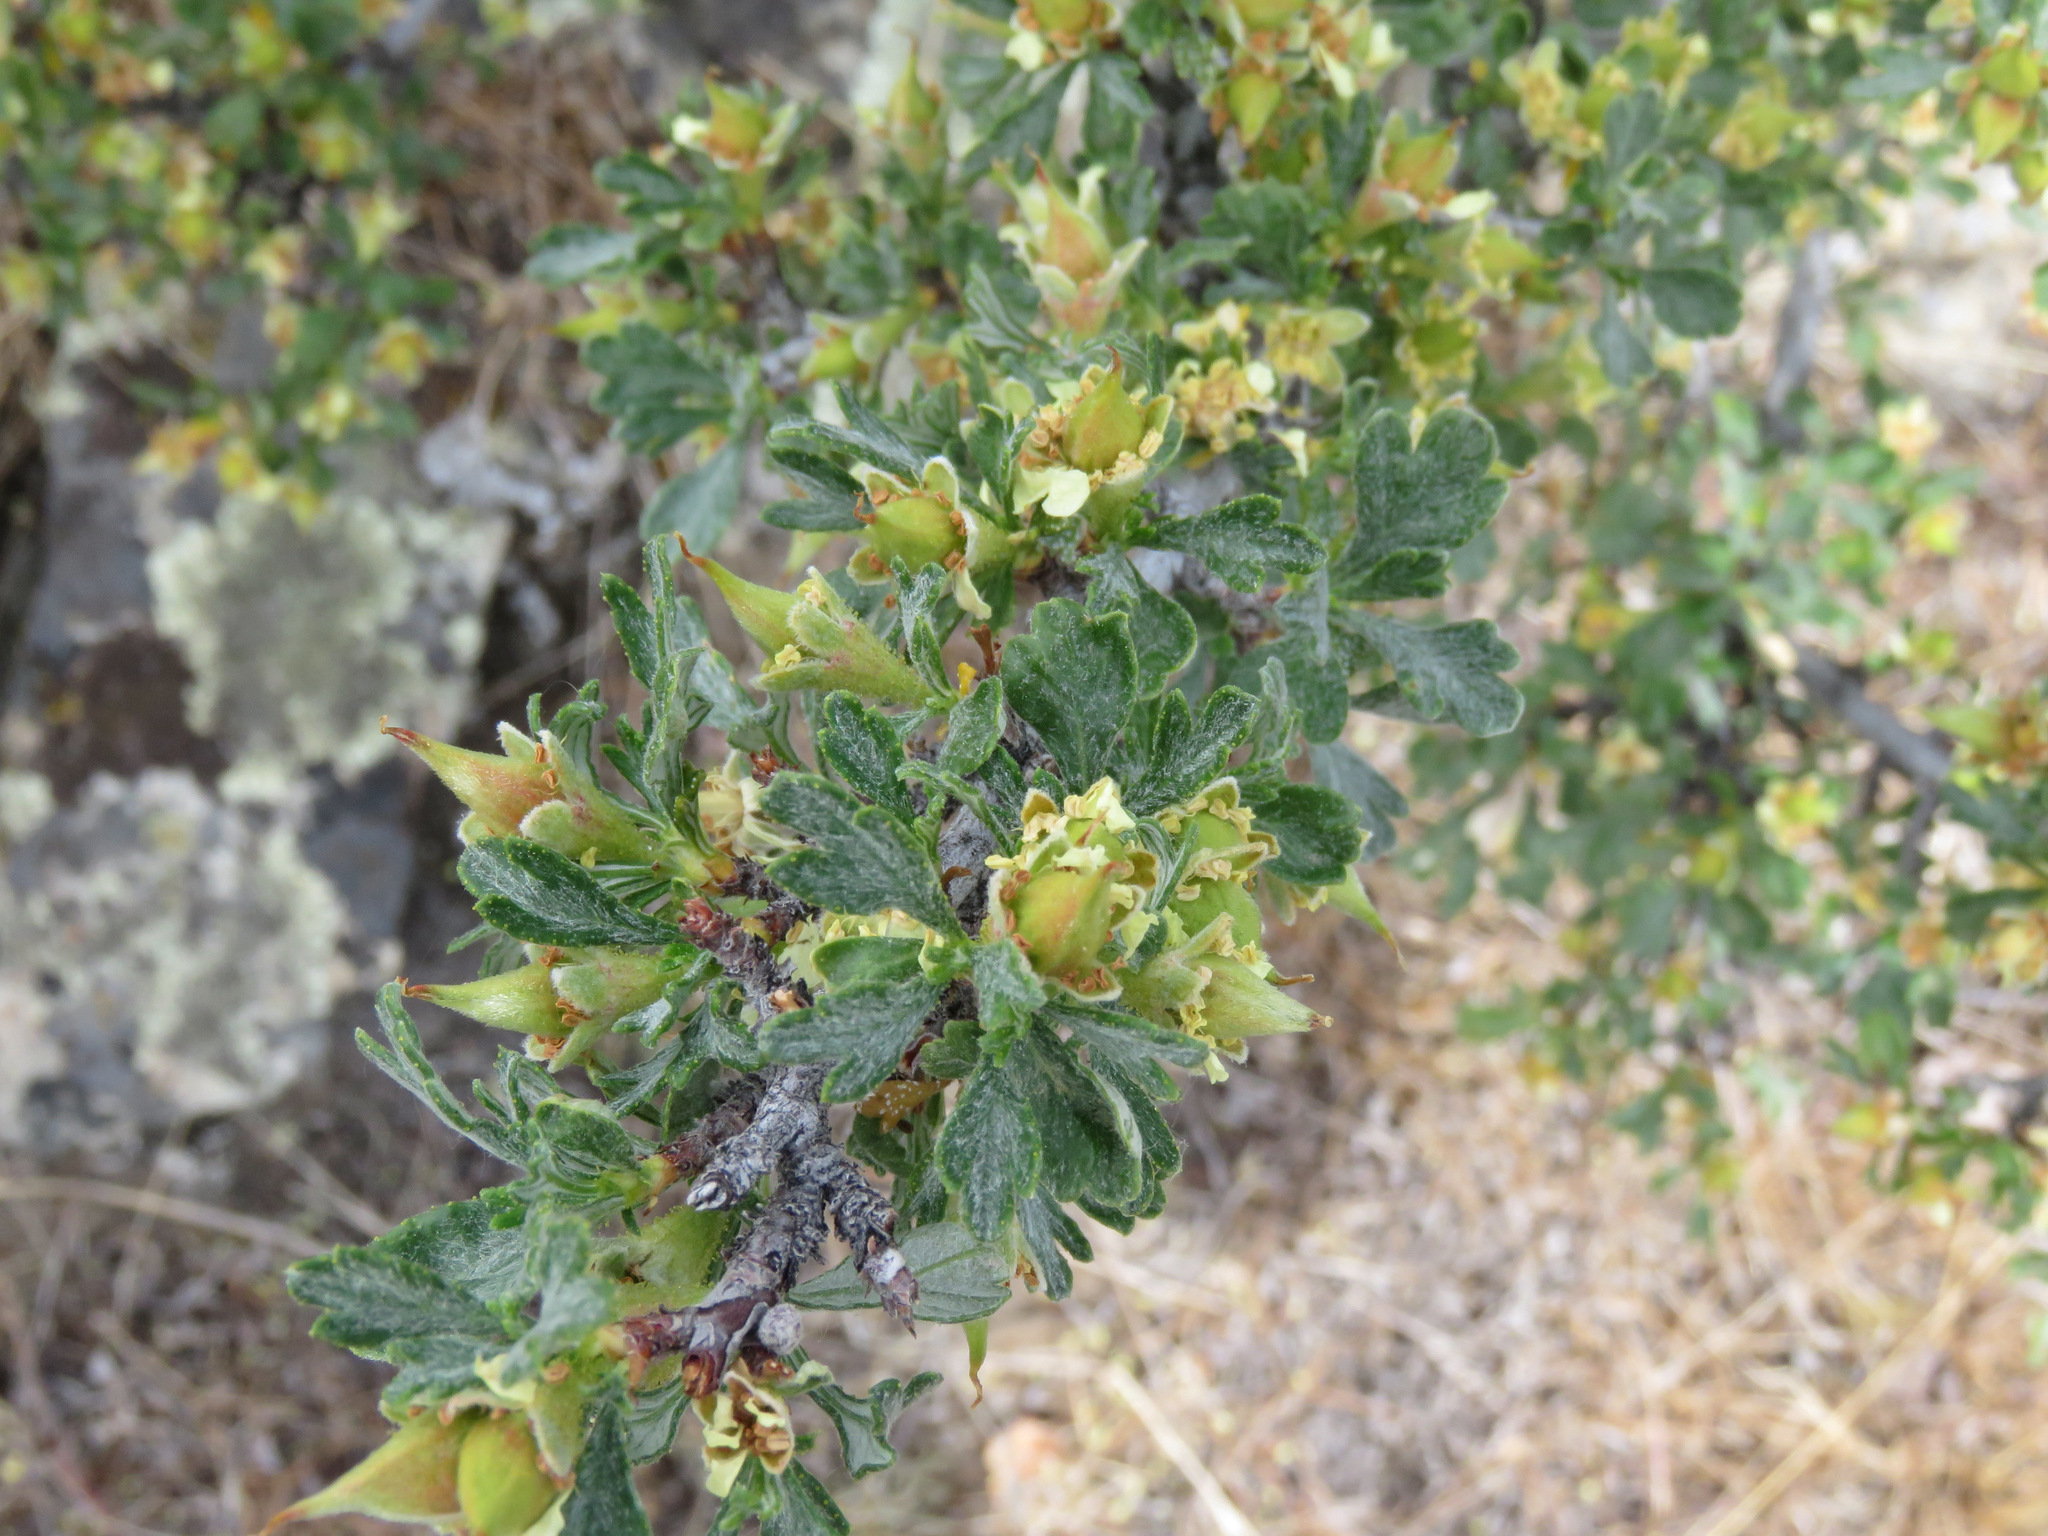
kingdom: Plantae
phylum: Tracheophyta
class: Magnoliopsida
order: Rosales
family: Rosaceae
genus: Purshia
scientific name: Purshia tridentata
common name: Antelope bitterbrush
